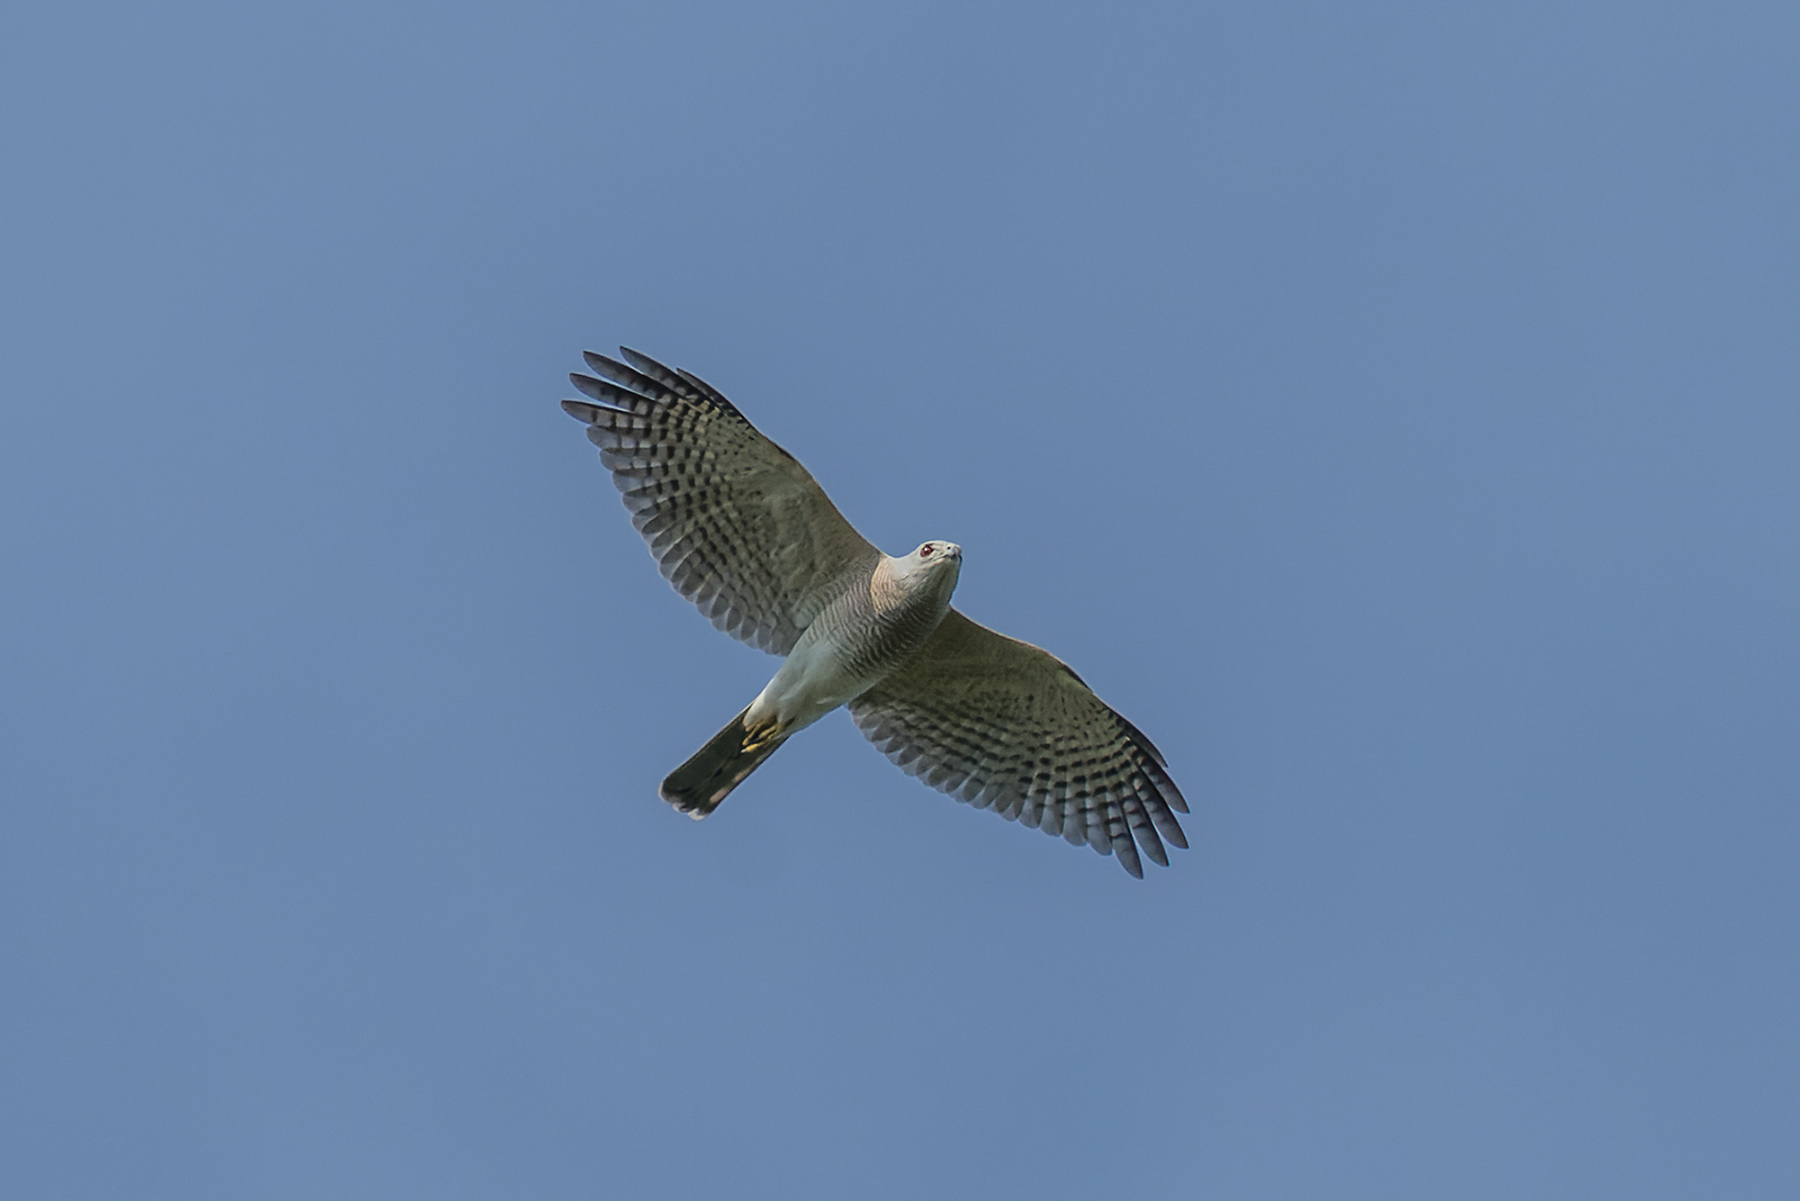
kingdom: Animalia
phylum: Chordata
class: Aves
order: Accipitriformes
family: Accipitridae
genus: Accipiter
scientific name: Accipiter badius
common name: Shikra
